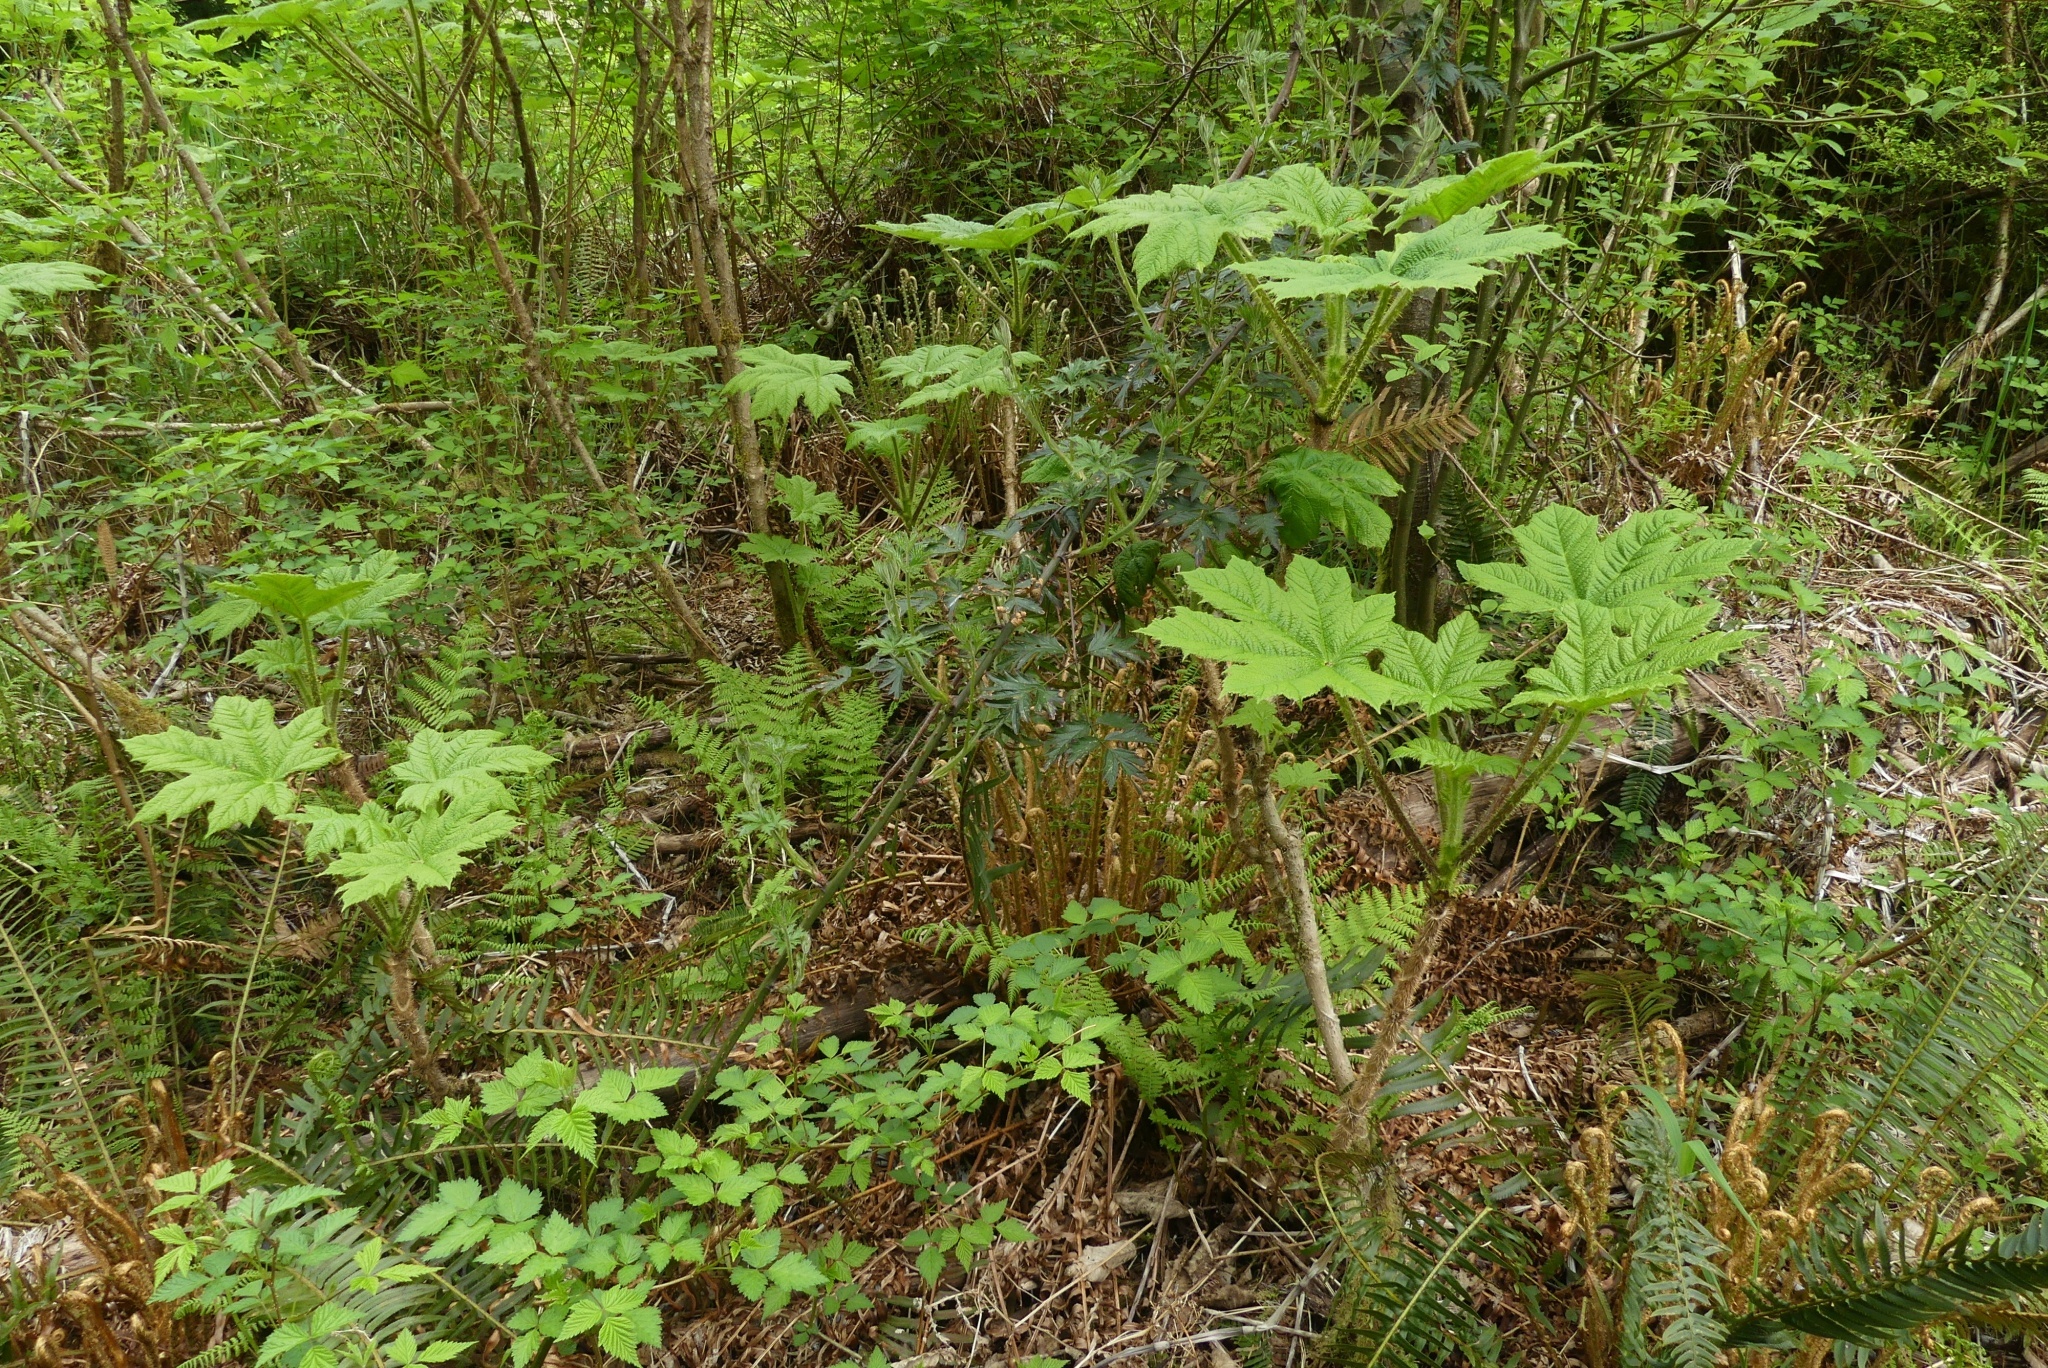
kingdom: Plantae
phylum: Tracheophyta
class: Magnoliopsida
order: Rosales
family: Rosaceae
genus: Rubus
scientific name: Rubus laciniatus
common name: Evergreen blackberry
